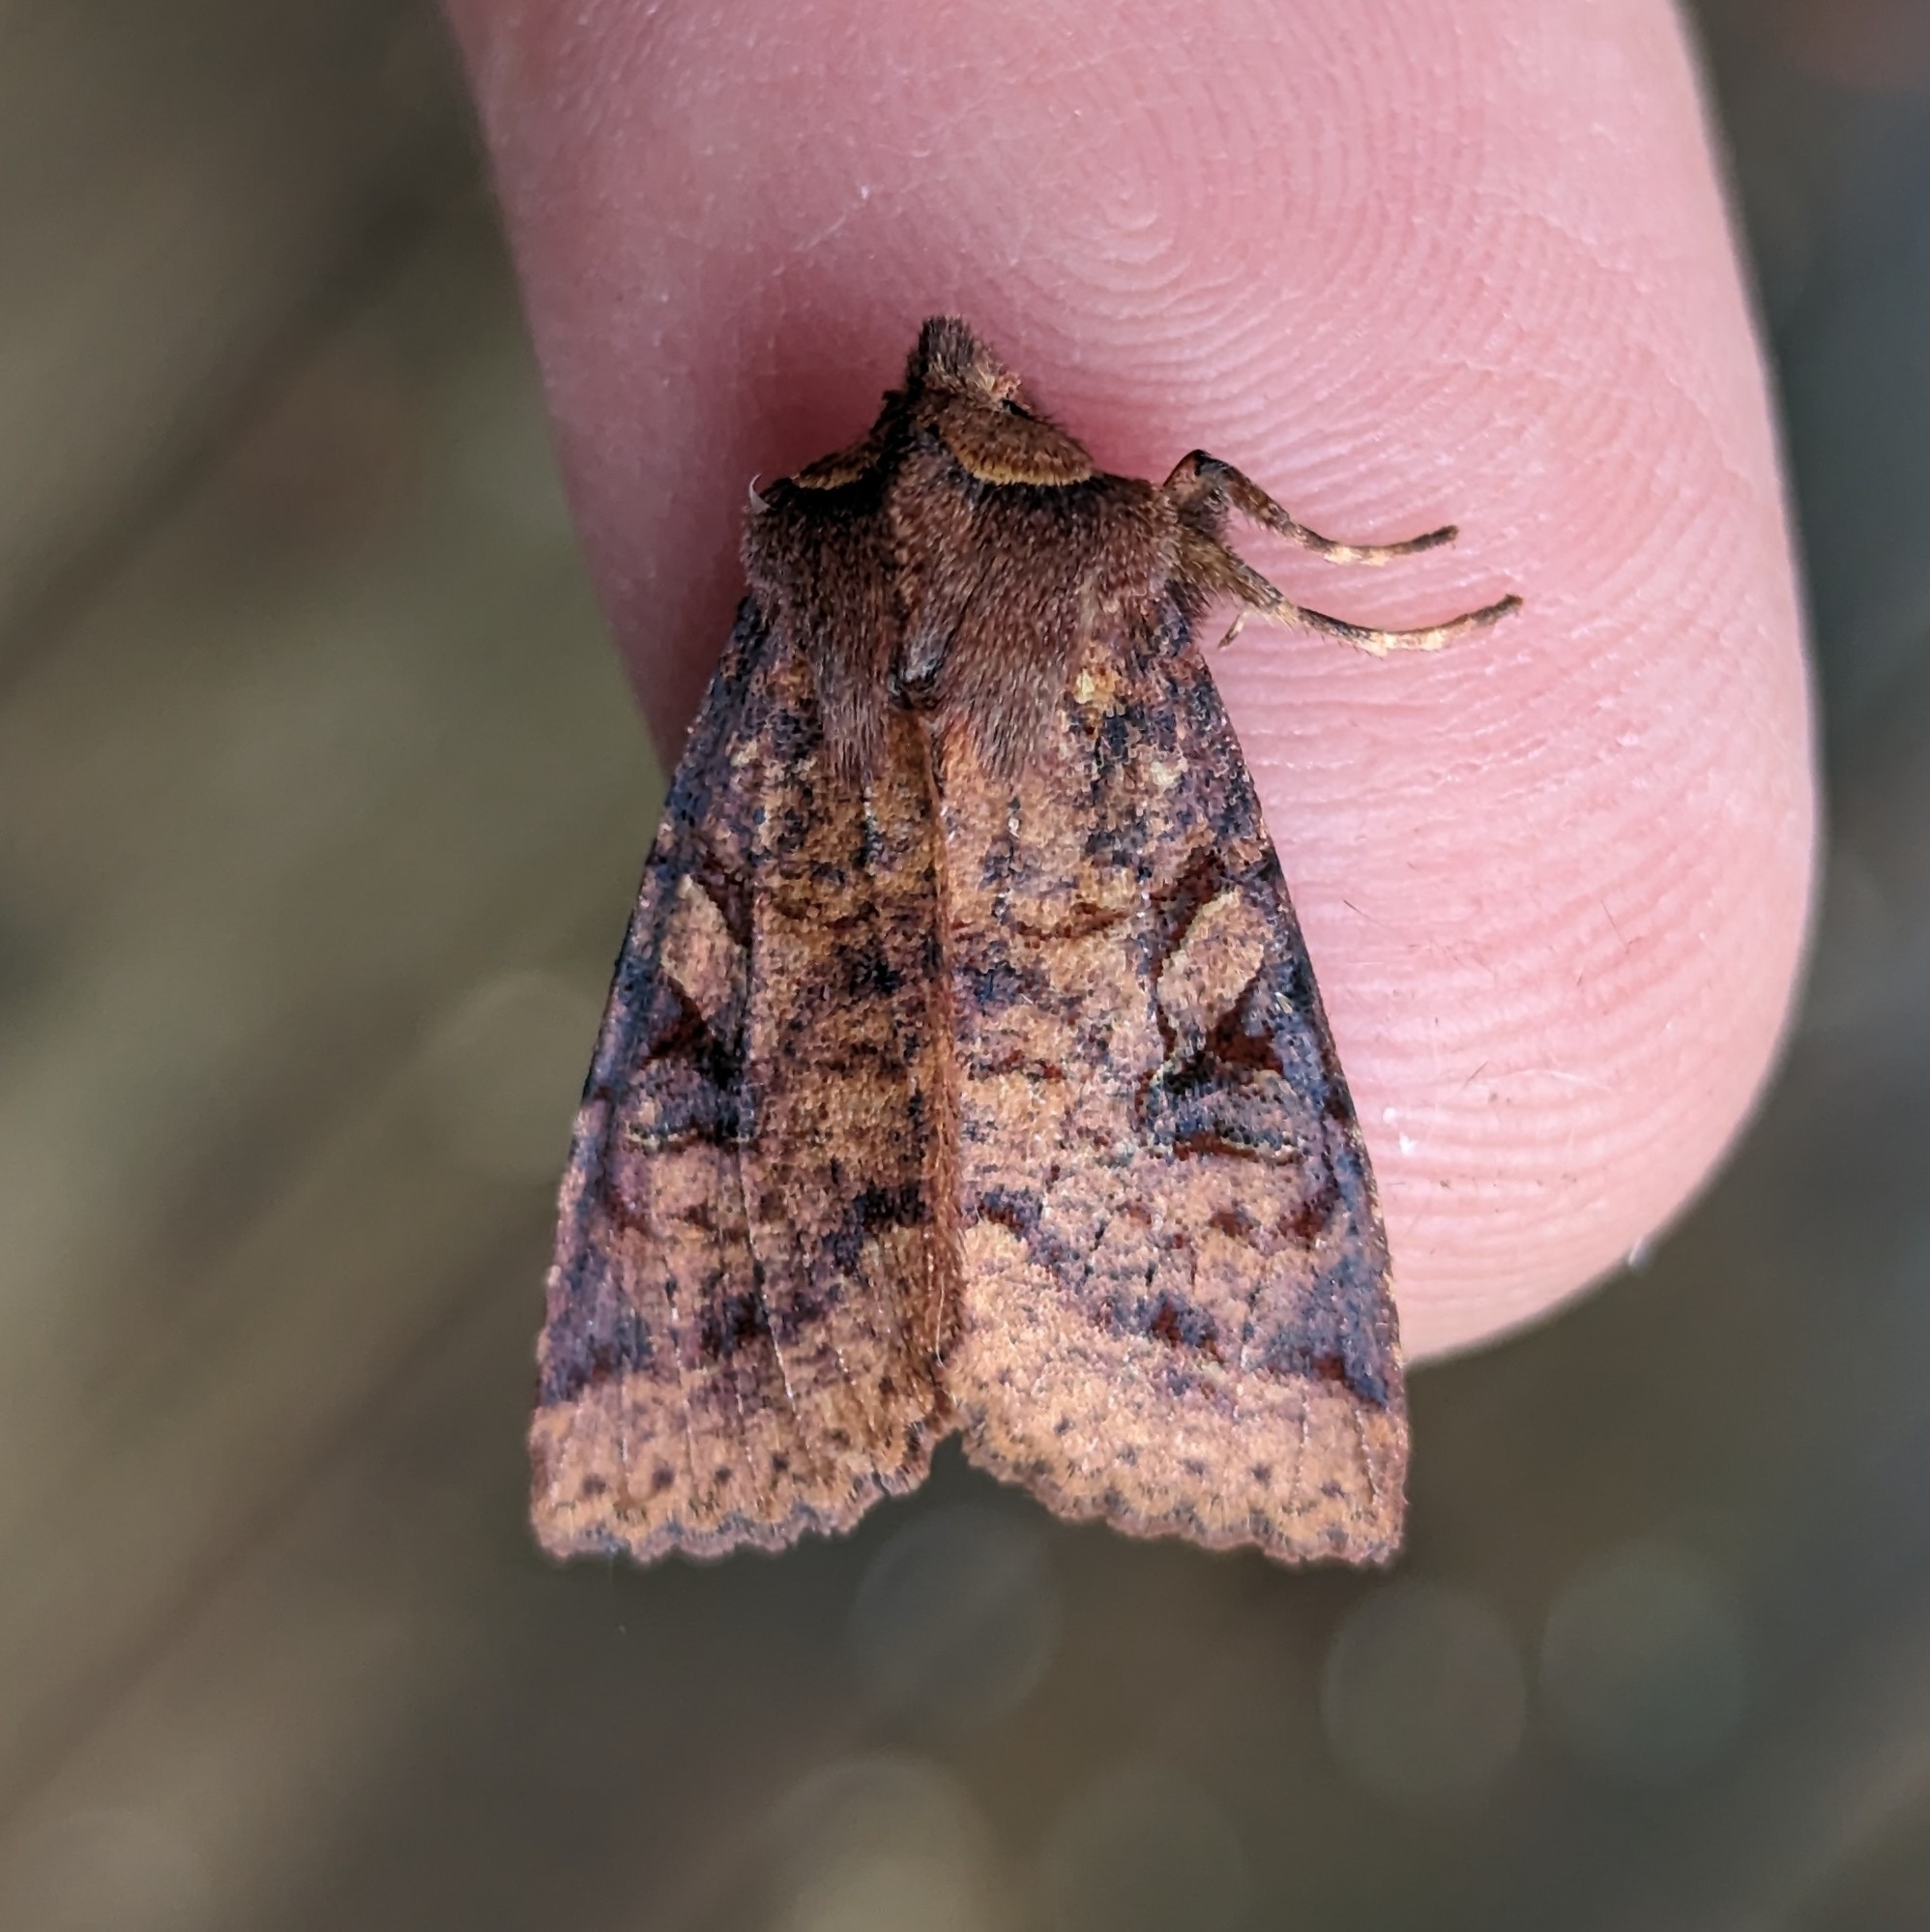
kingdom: Animalia
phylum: Arthropoda
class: Insecta
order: Lepidoptera
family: Noctuidae
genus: Orthosia
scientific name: Orthosia praeses
